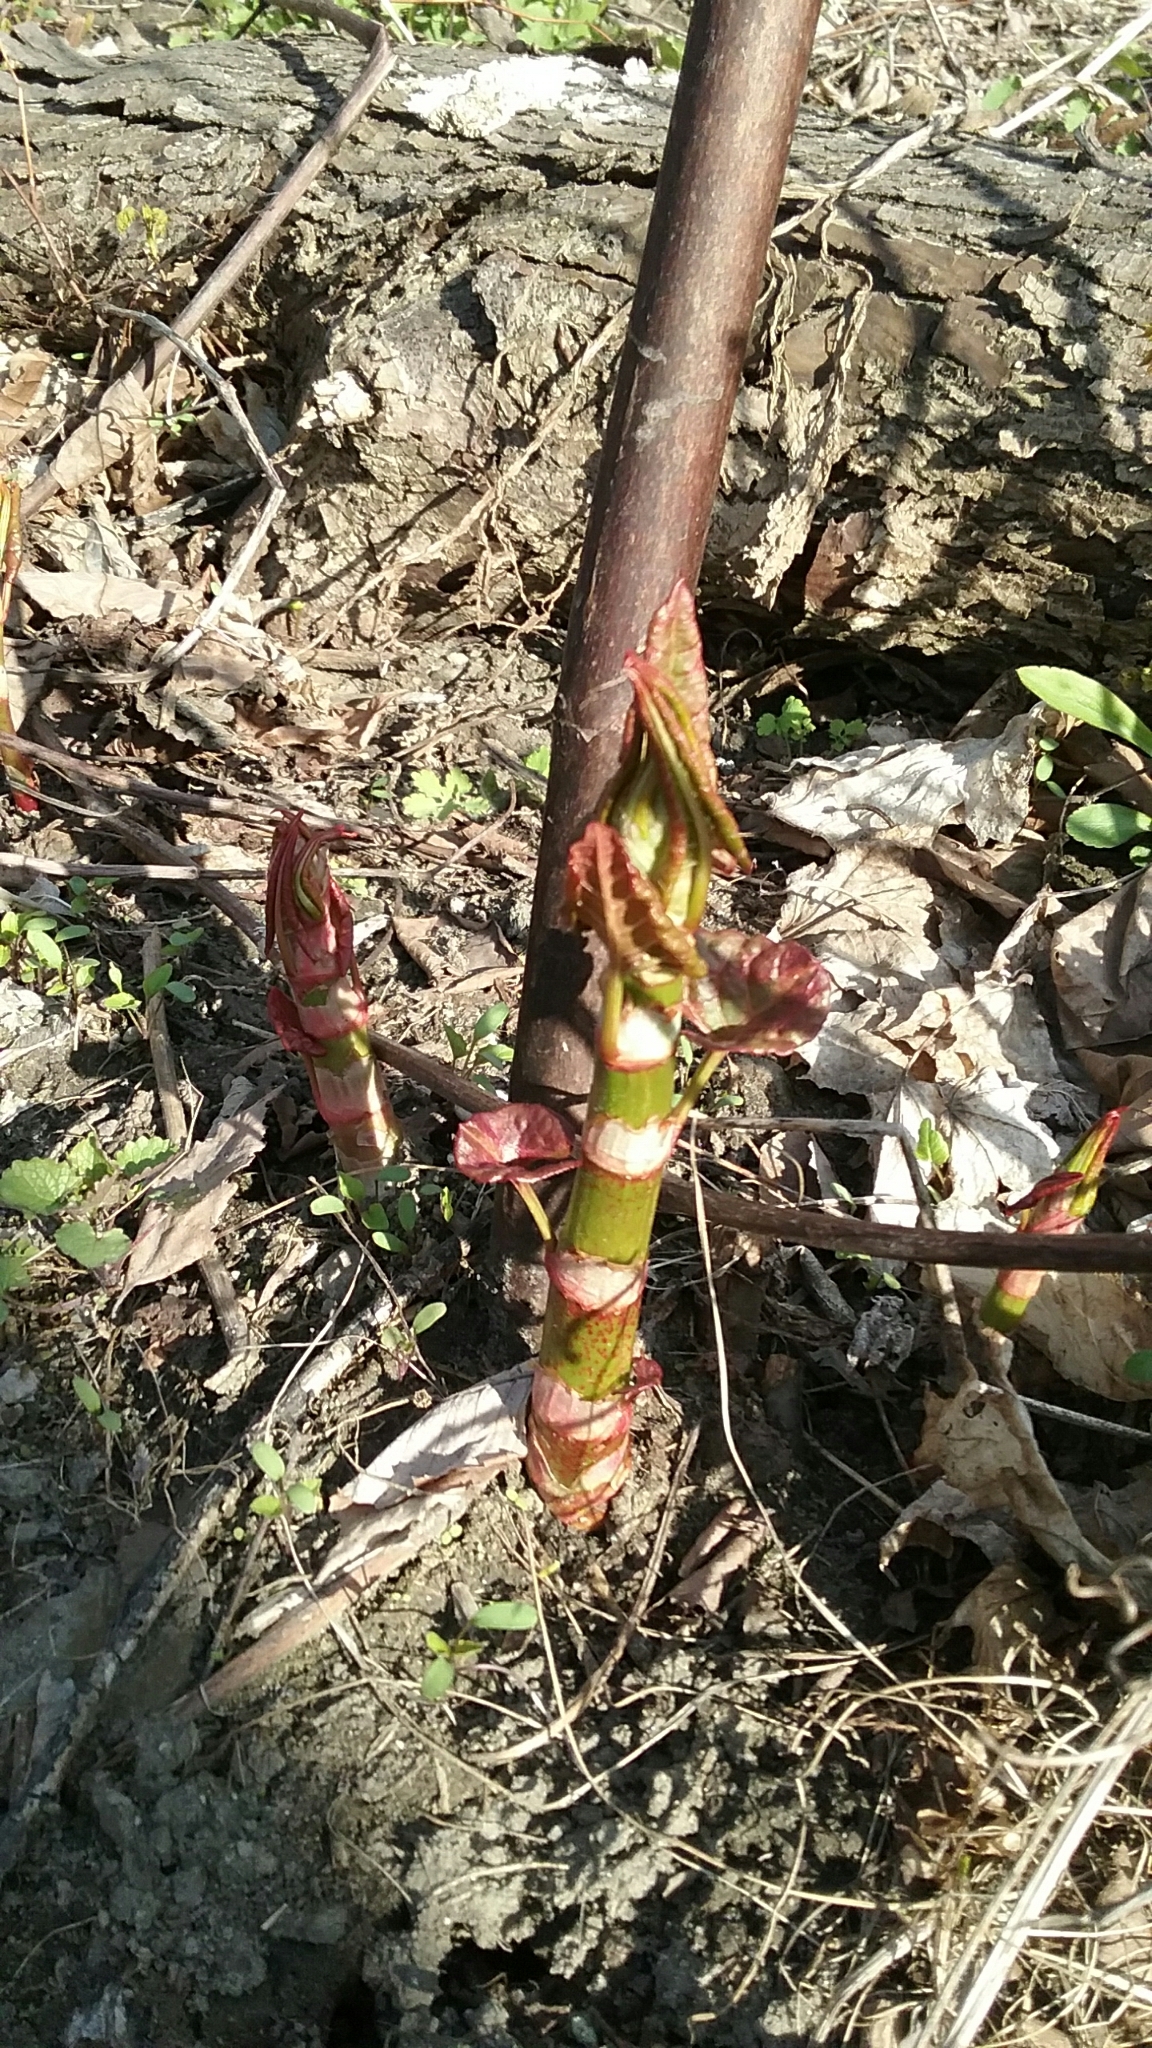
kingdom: Plantae
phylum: Tracheophyta
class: Magnoliopsida
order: Caryophyllales
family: Polygonaceae
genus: Reynoutria
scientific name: Reynoutria japonica
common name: Japanese knotweed
